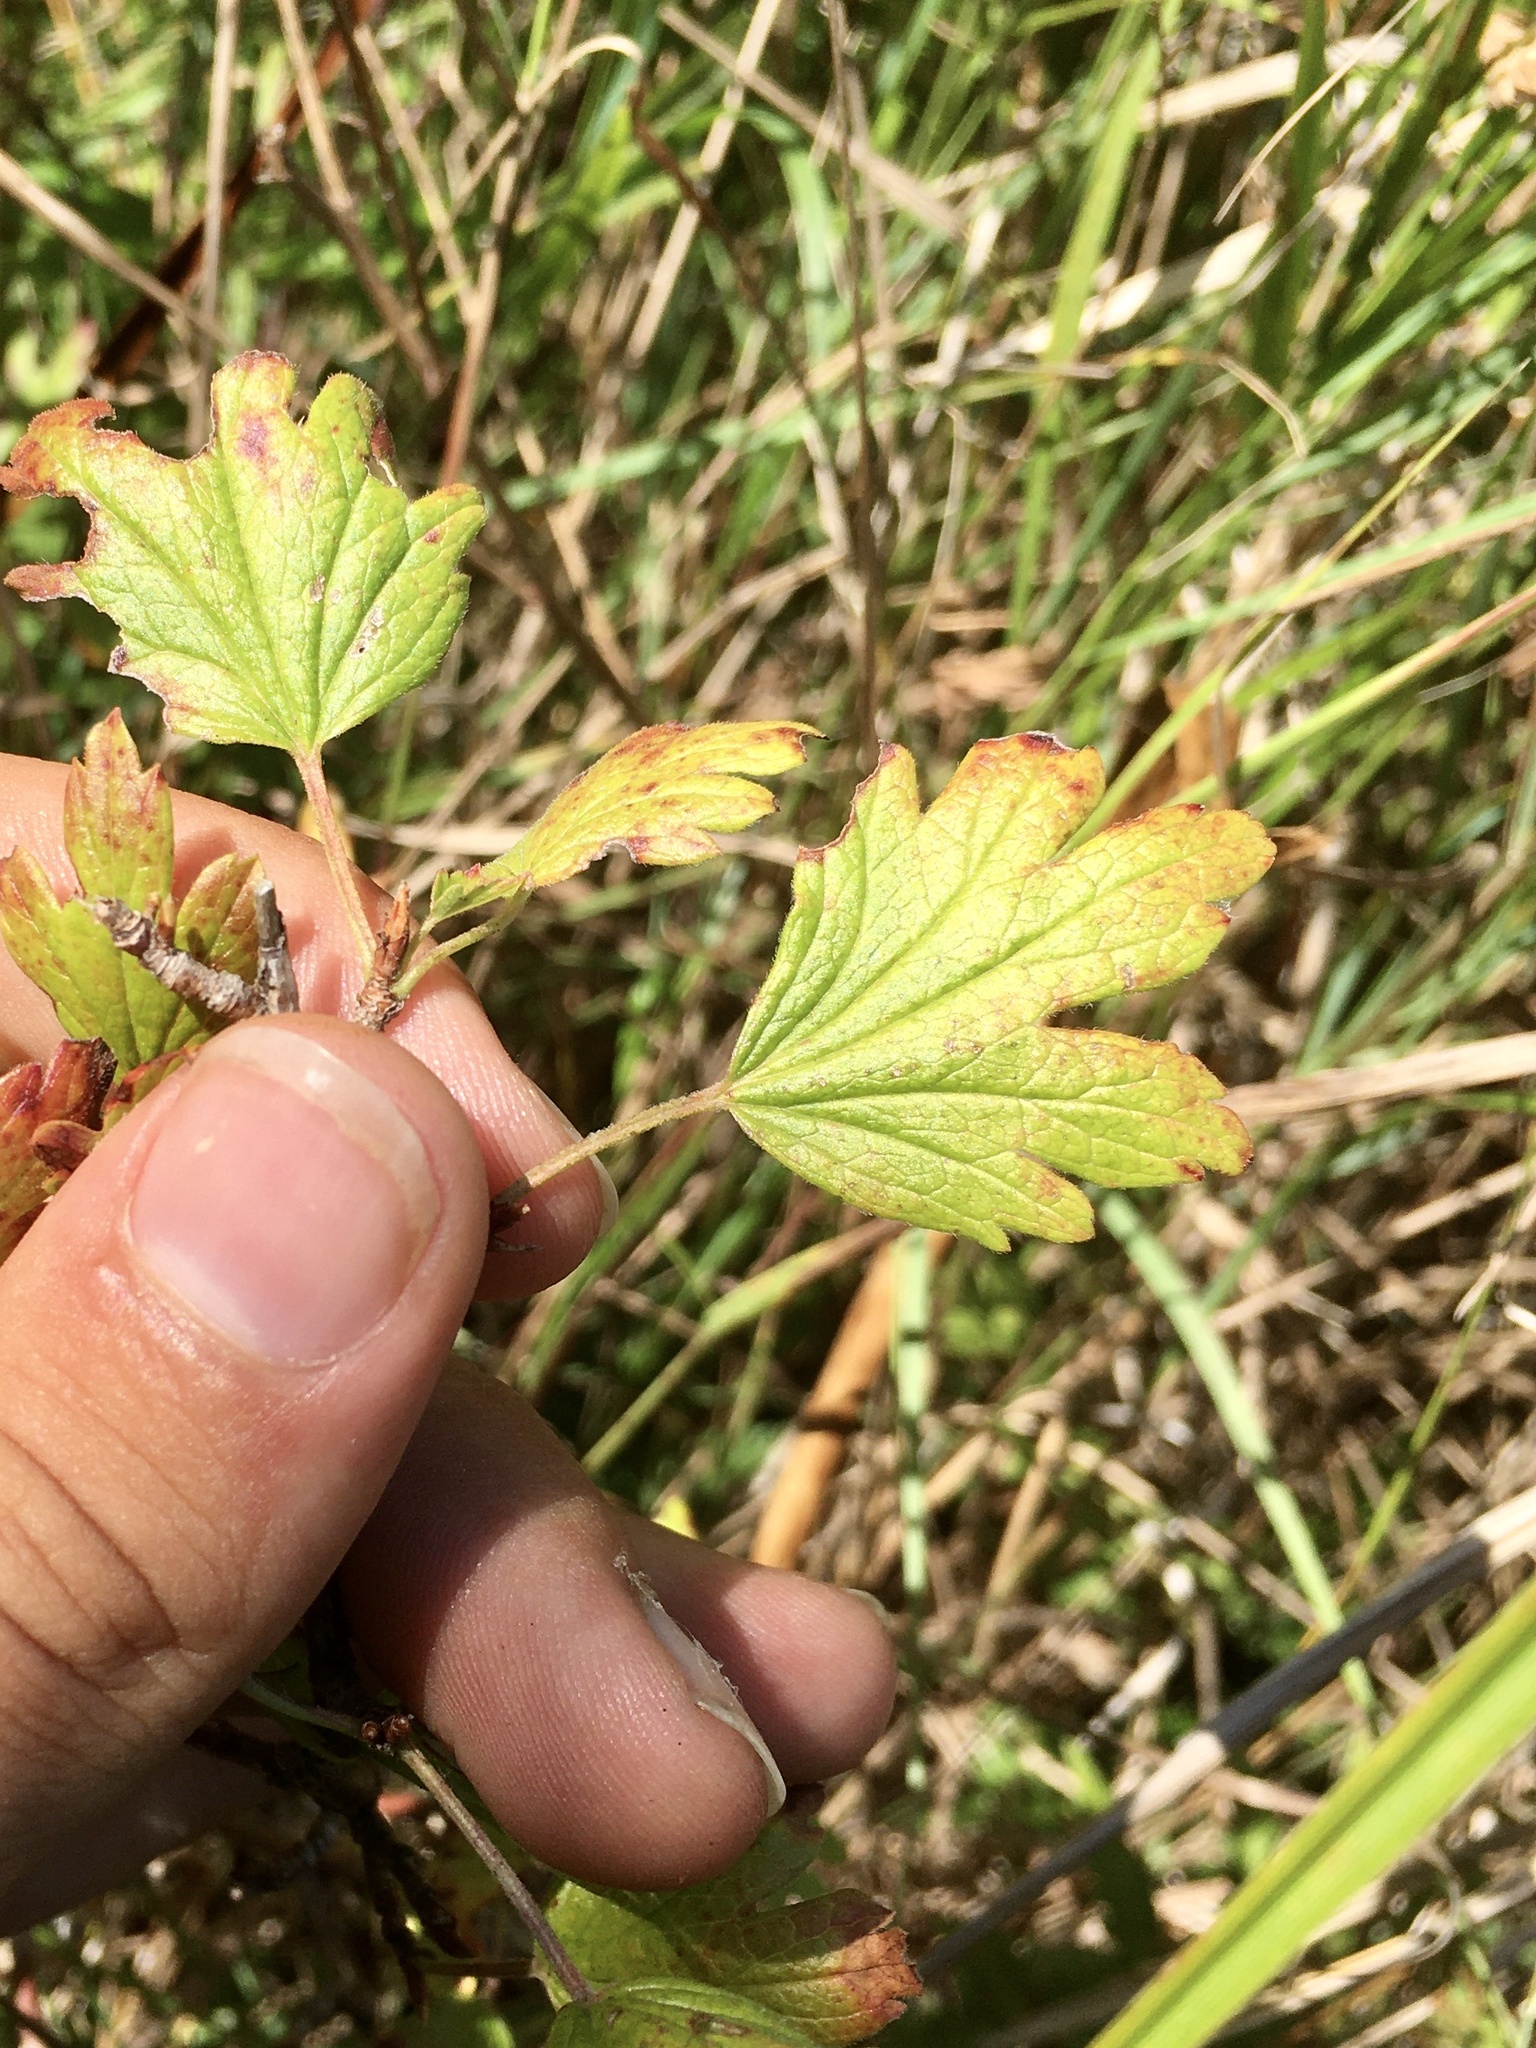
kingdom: Plantae
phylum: Tracheophyta
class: Magnoliopsida
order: Saxifragales
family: Grossulariaceae
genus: Ribes
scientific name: Ribes hirtellum
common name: Hairy gooseberry
